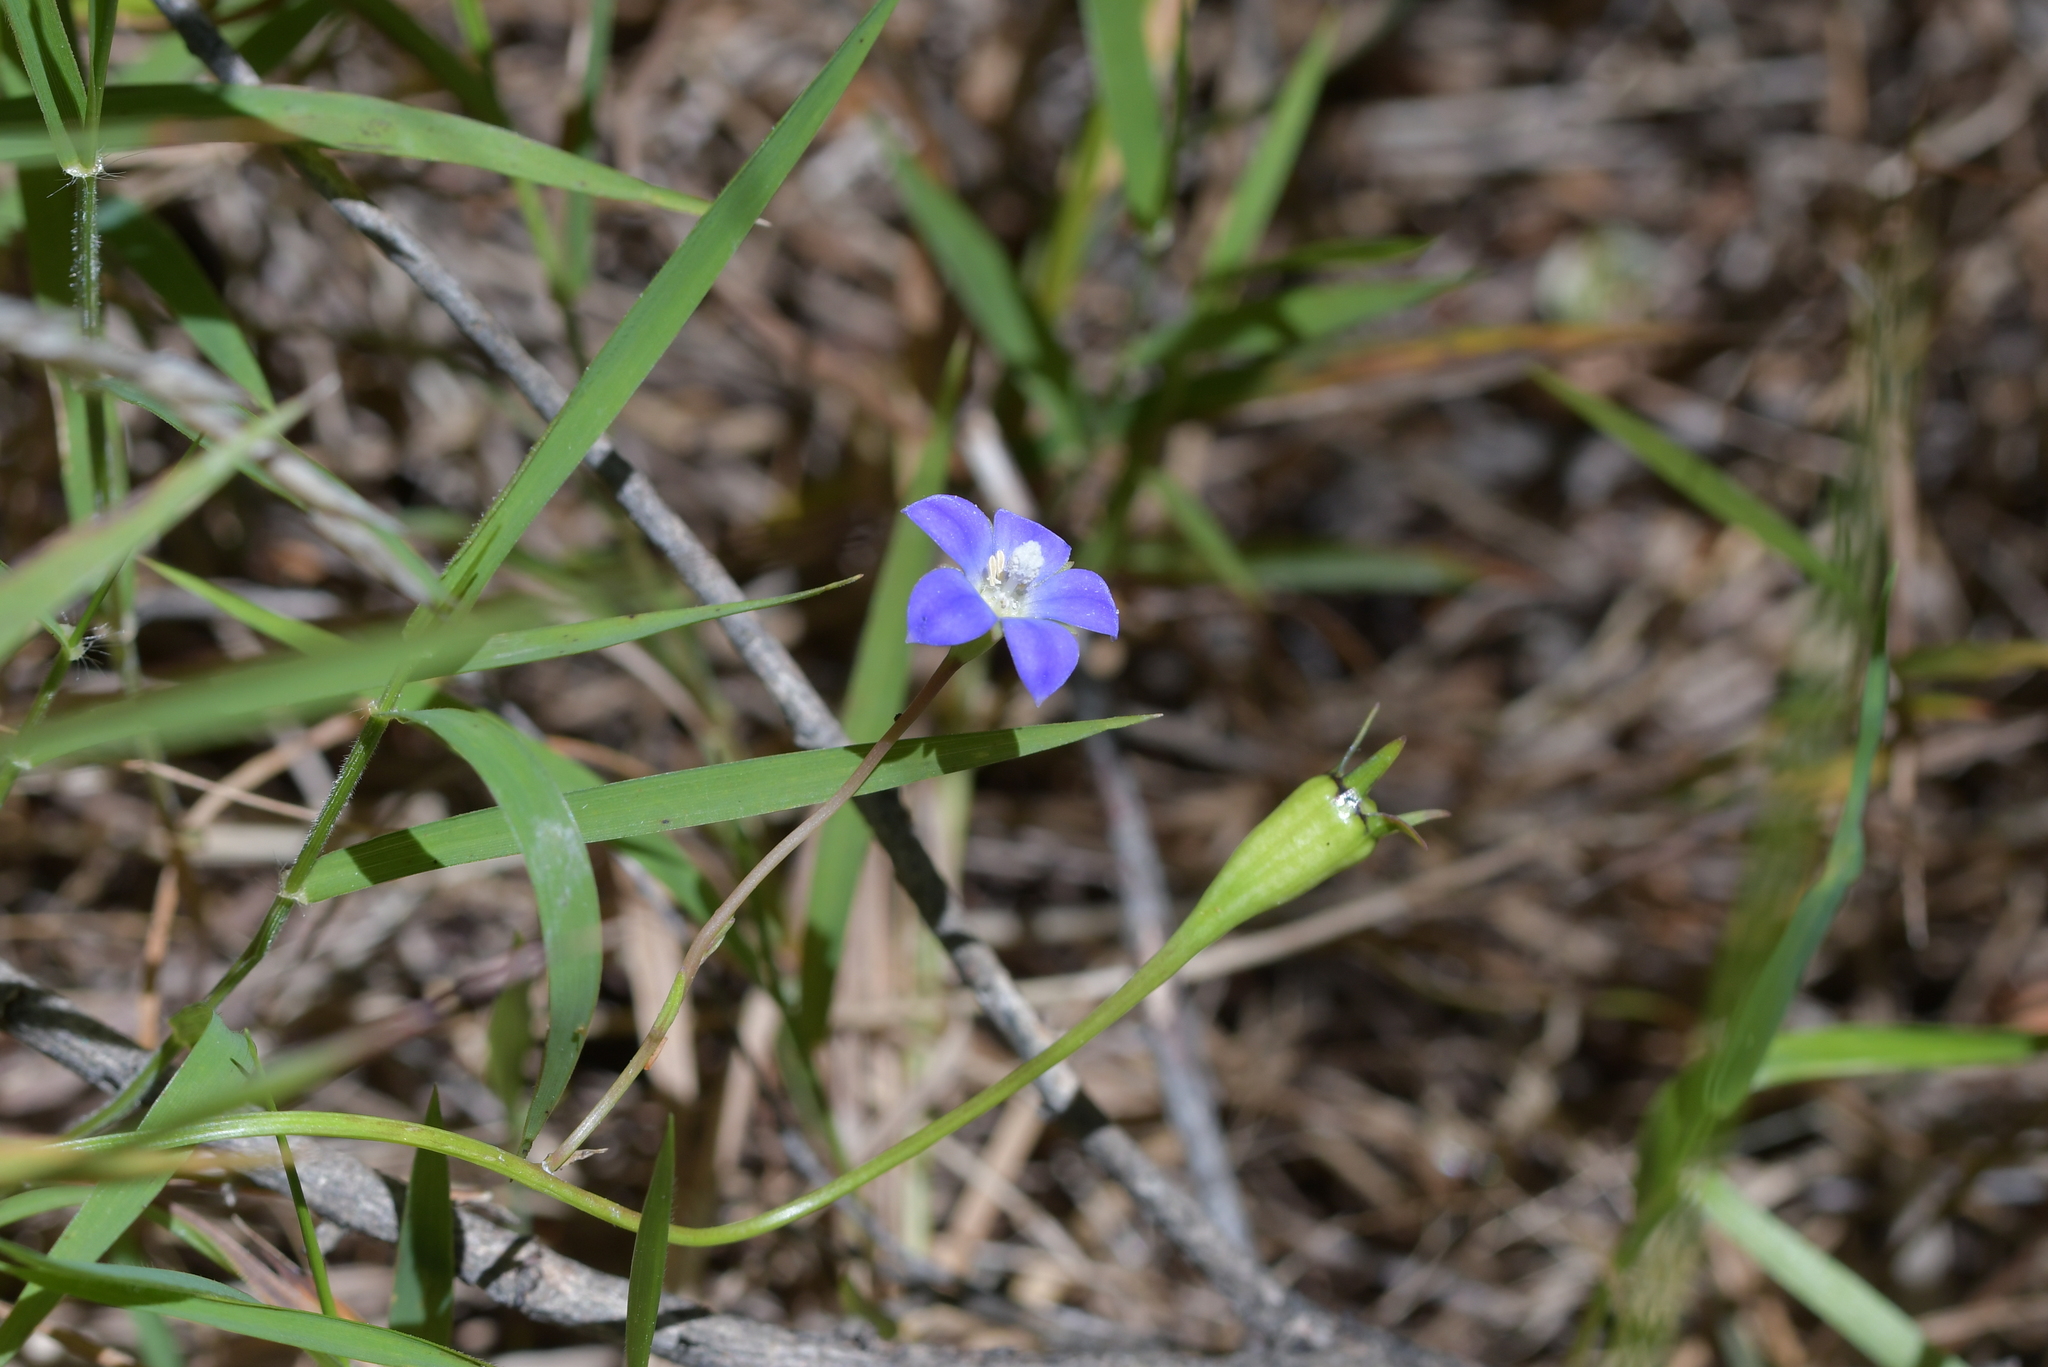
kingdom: Plantae
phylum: Tracheophyta
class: Magnoliopsida
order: Asterales
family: Campanulaceae
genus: Wahlenbergia
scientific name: Wahlenbergia violacea
